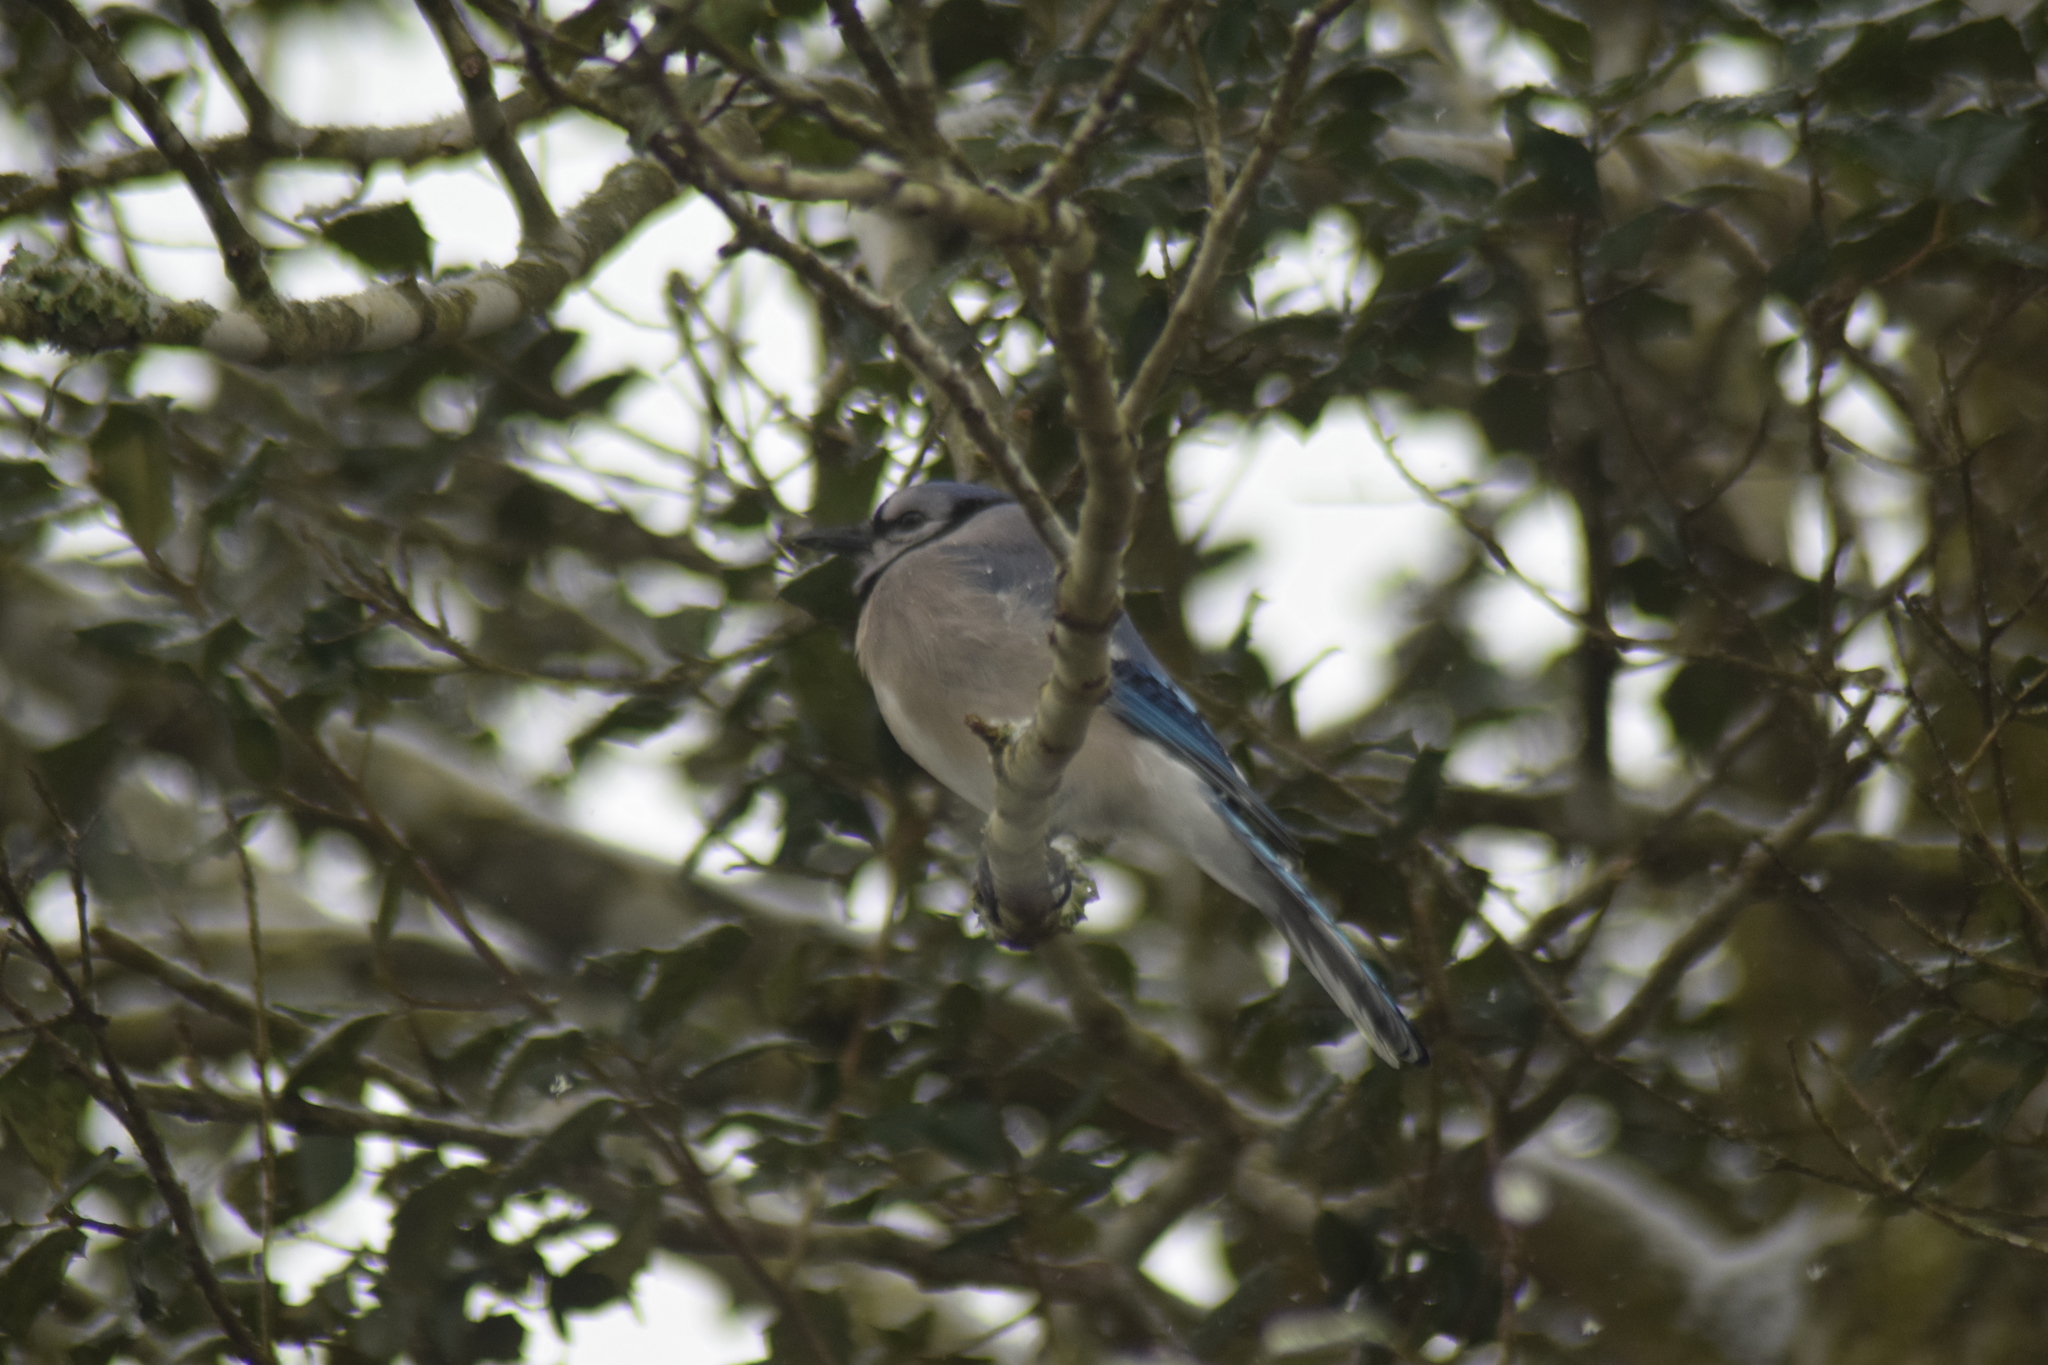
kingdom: Animalia
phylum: Chordata
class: Aves
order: Passeriformes
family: Corvidae
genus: Cyanocitta
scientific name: Cyanocitta cristata
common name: Blue jay
